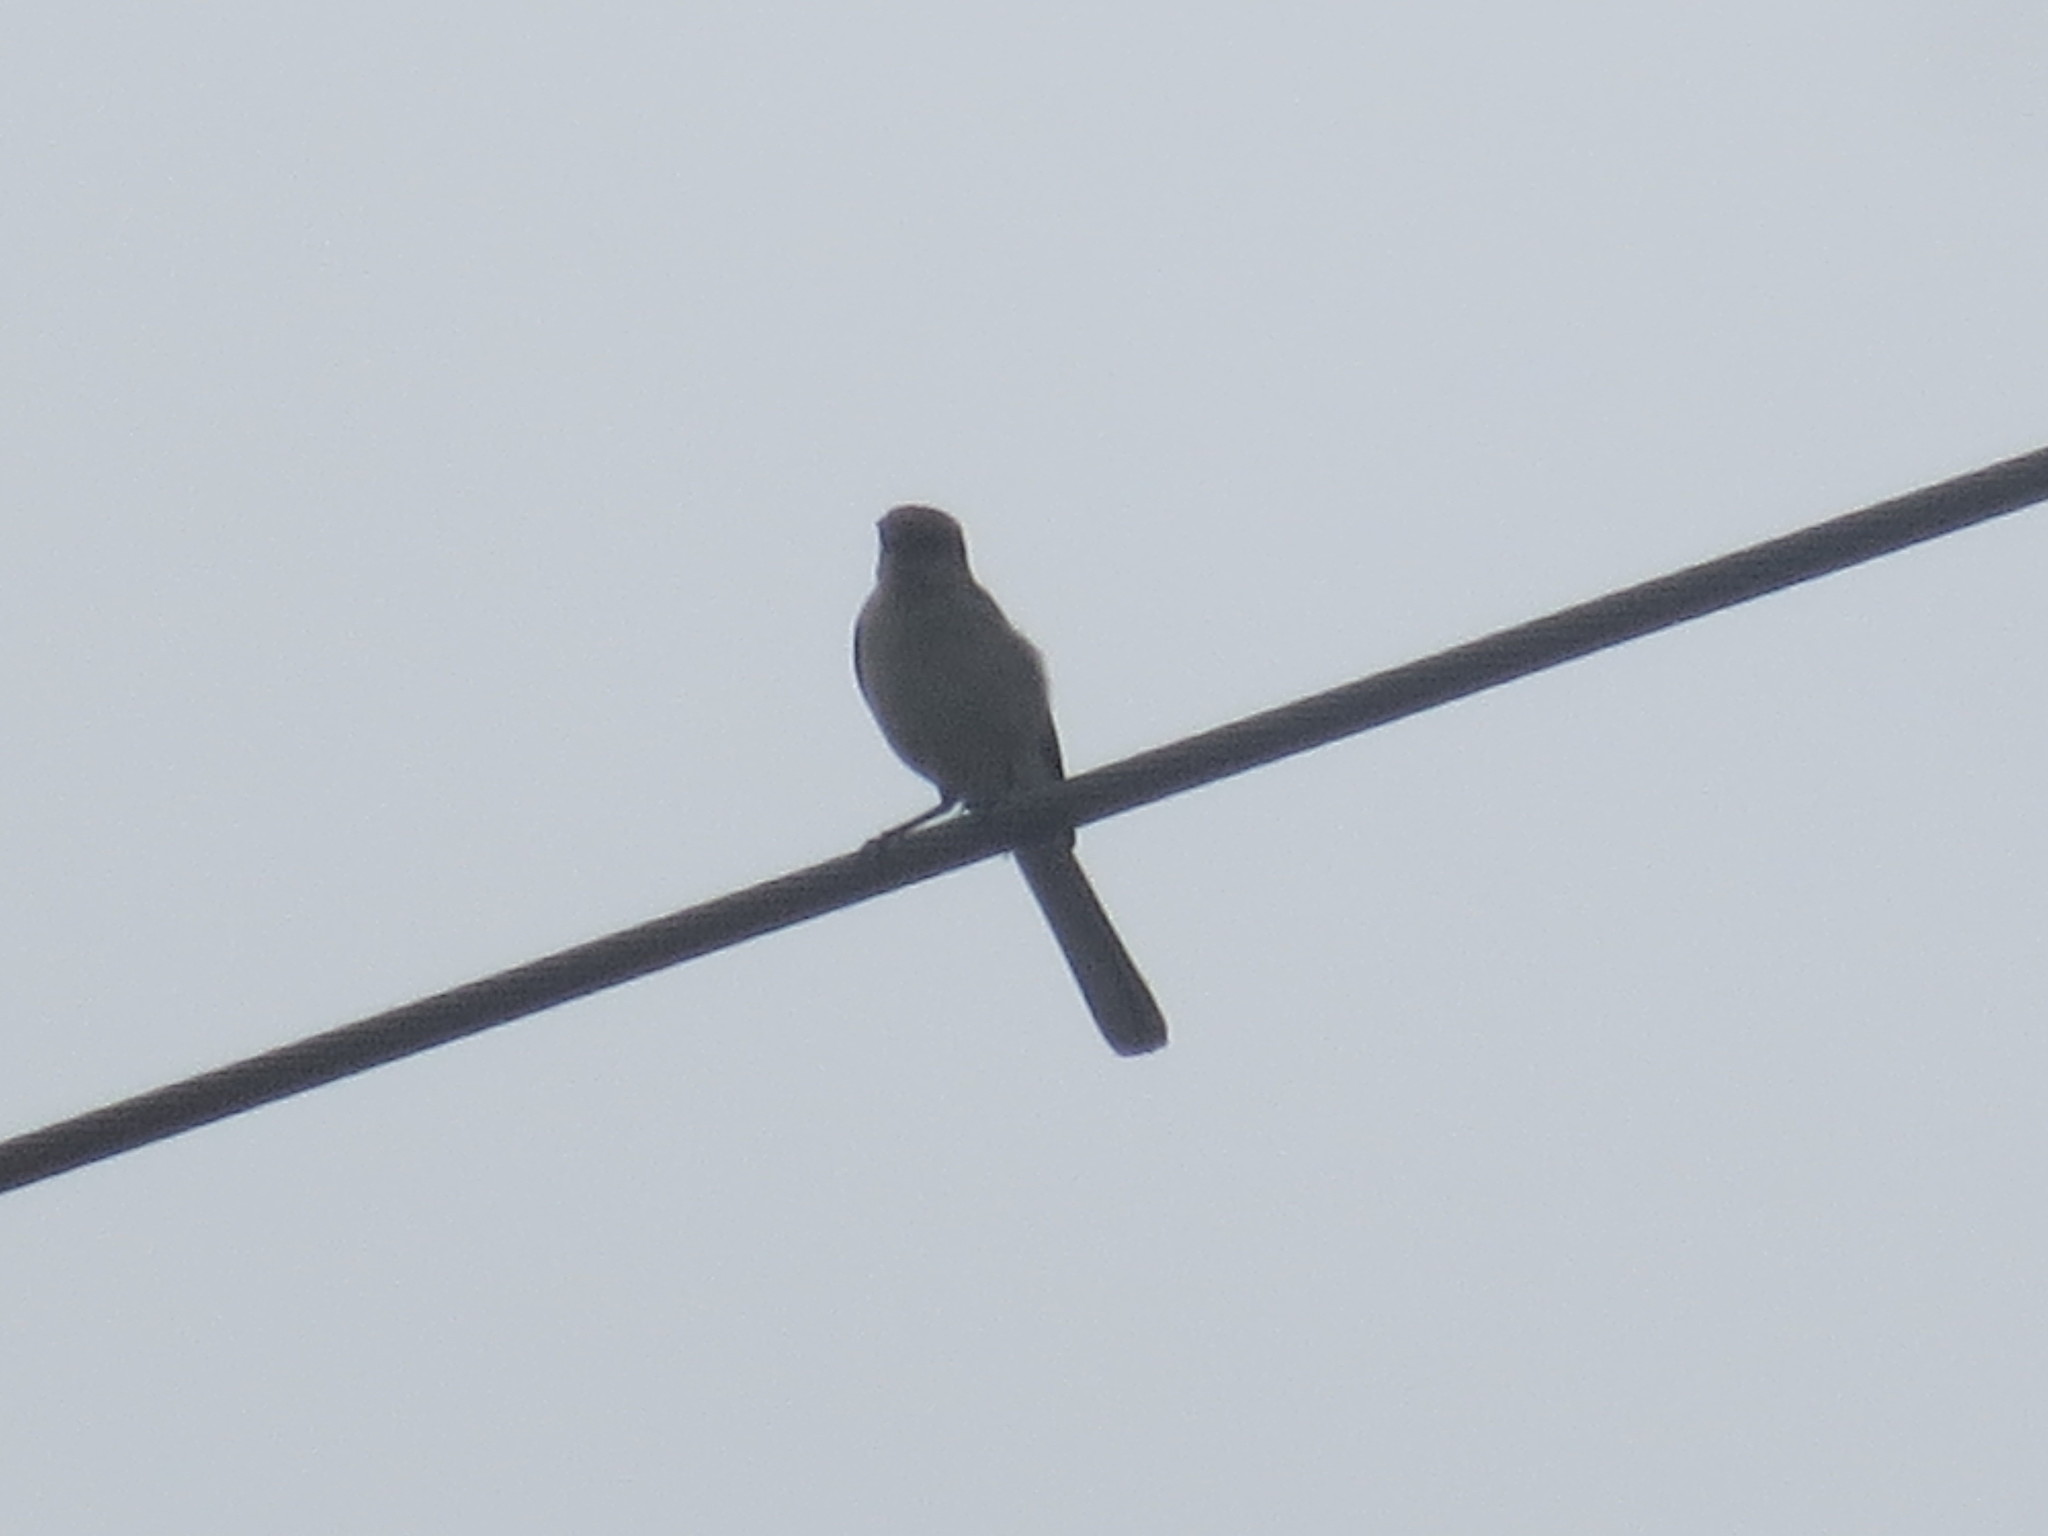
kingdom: Animalia
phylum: Chordata
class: Aves
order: Passeriformes
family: Mimidae
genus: Mimus
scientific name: Mimus polyglottos
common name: Northern mockingbird
